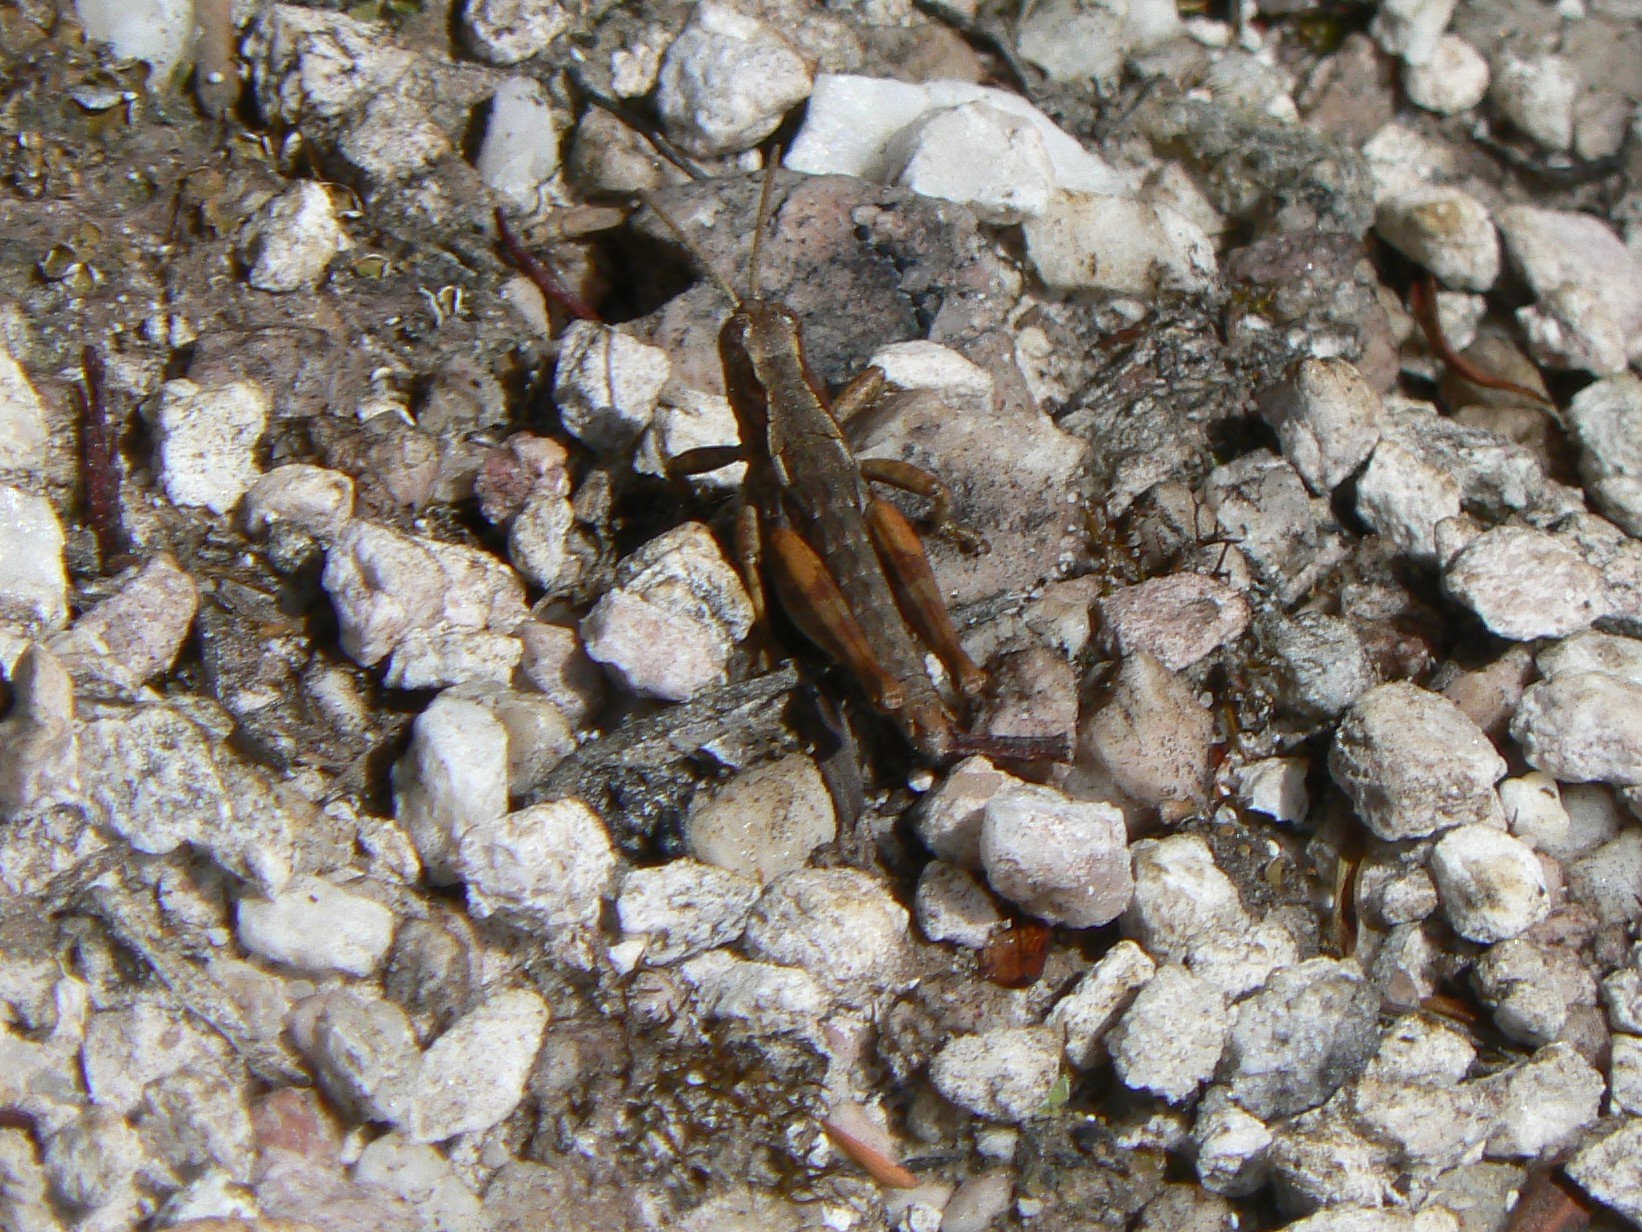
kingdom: Animalia
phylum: Arthropoda
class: Insecta
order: Orthoptera
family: Acrididae
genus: Tasmaniacris
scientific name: Tasmaniacris tasmaniensis
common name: Tasmanian grasshopper
